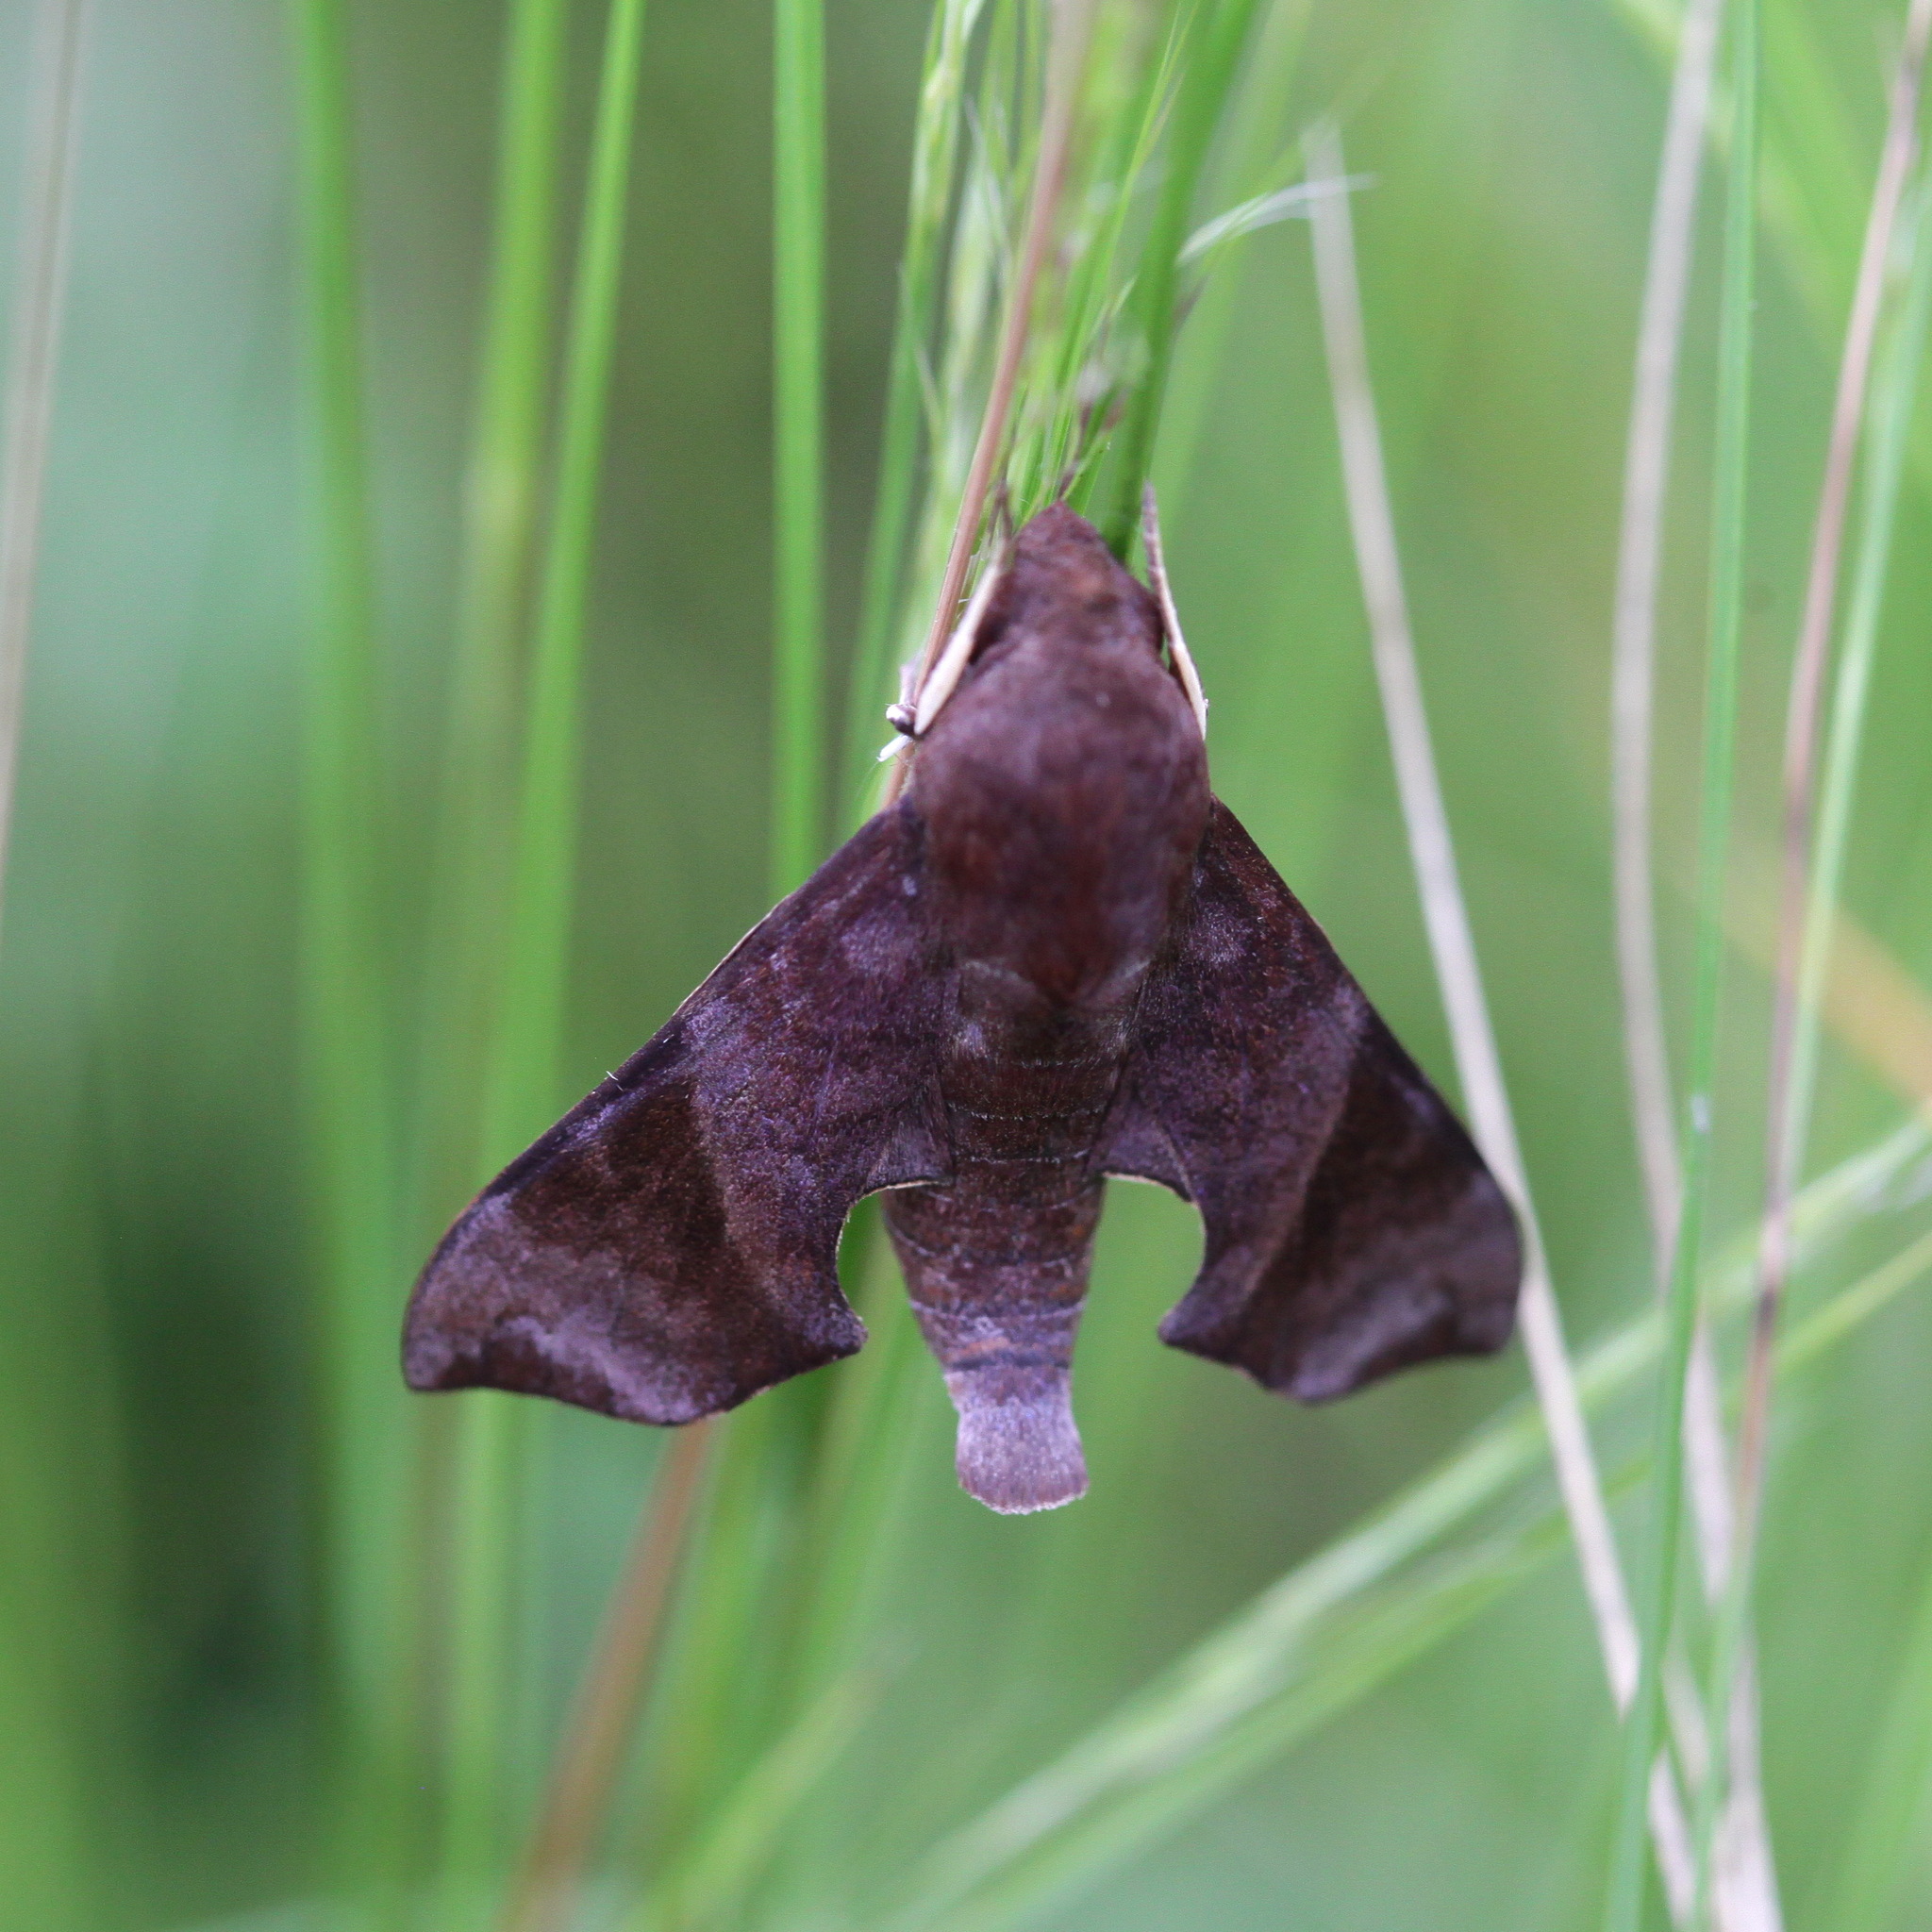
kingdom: Animalia
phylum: Arthropoda
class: Insecta
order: Lepidoptera
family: Sphingidae
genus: Temnora
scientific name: Temnora funebris
